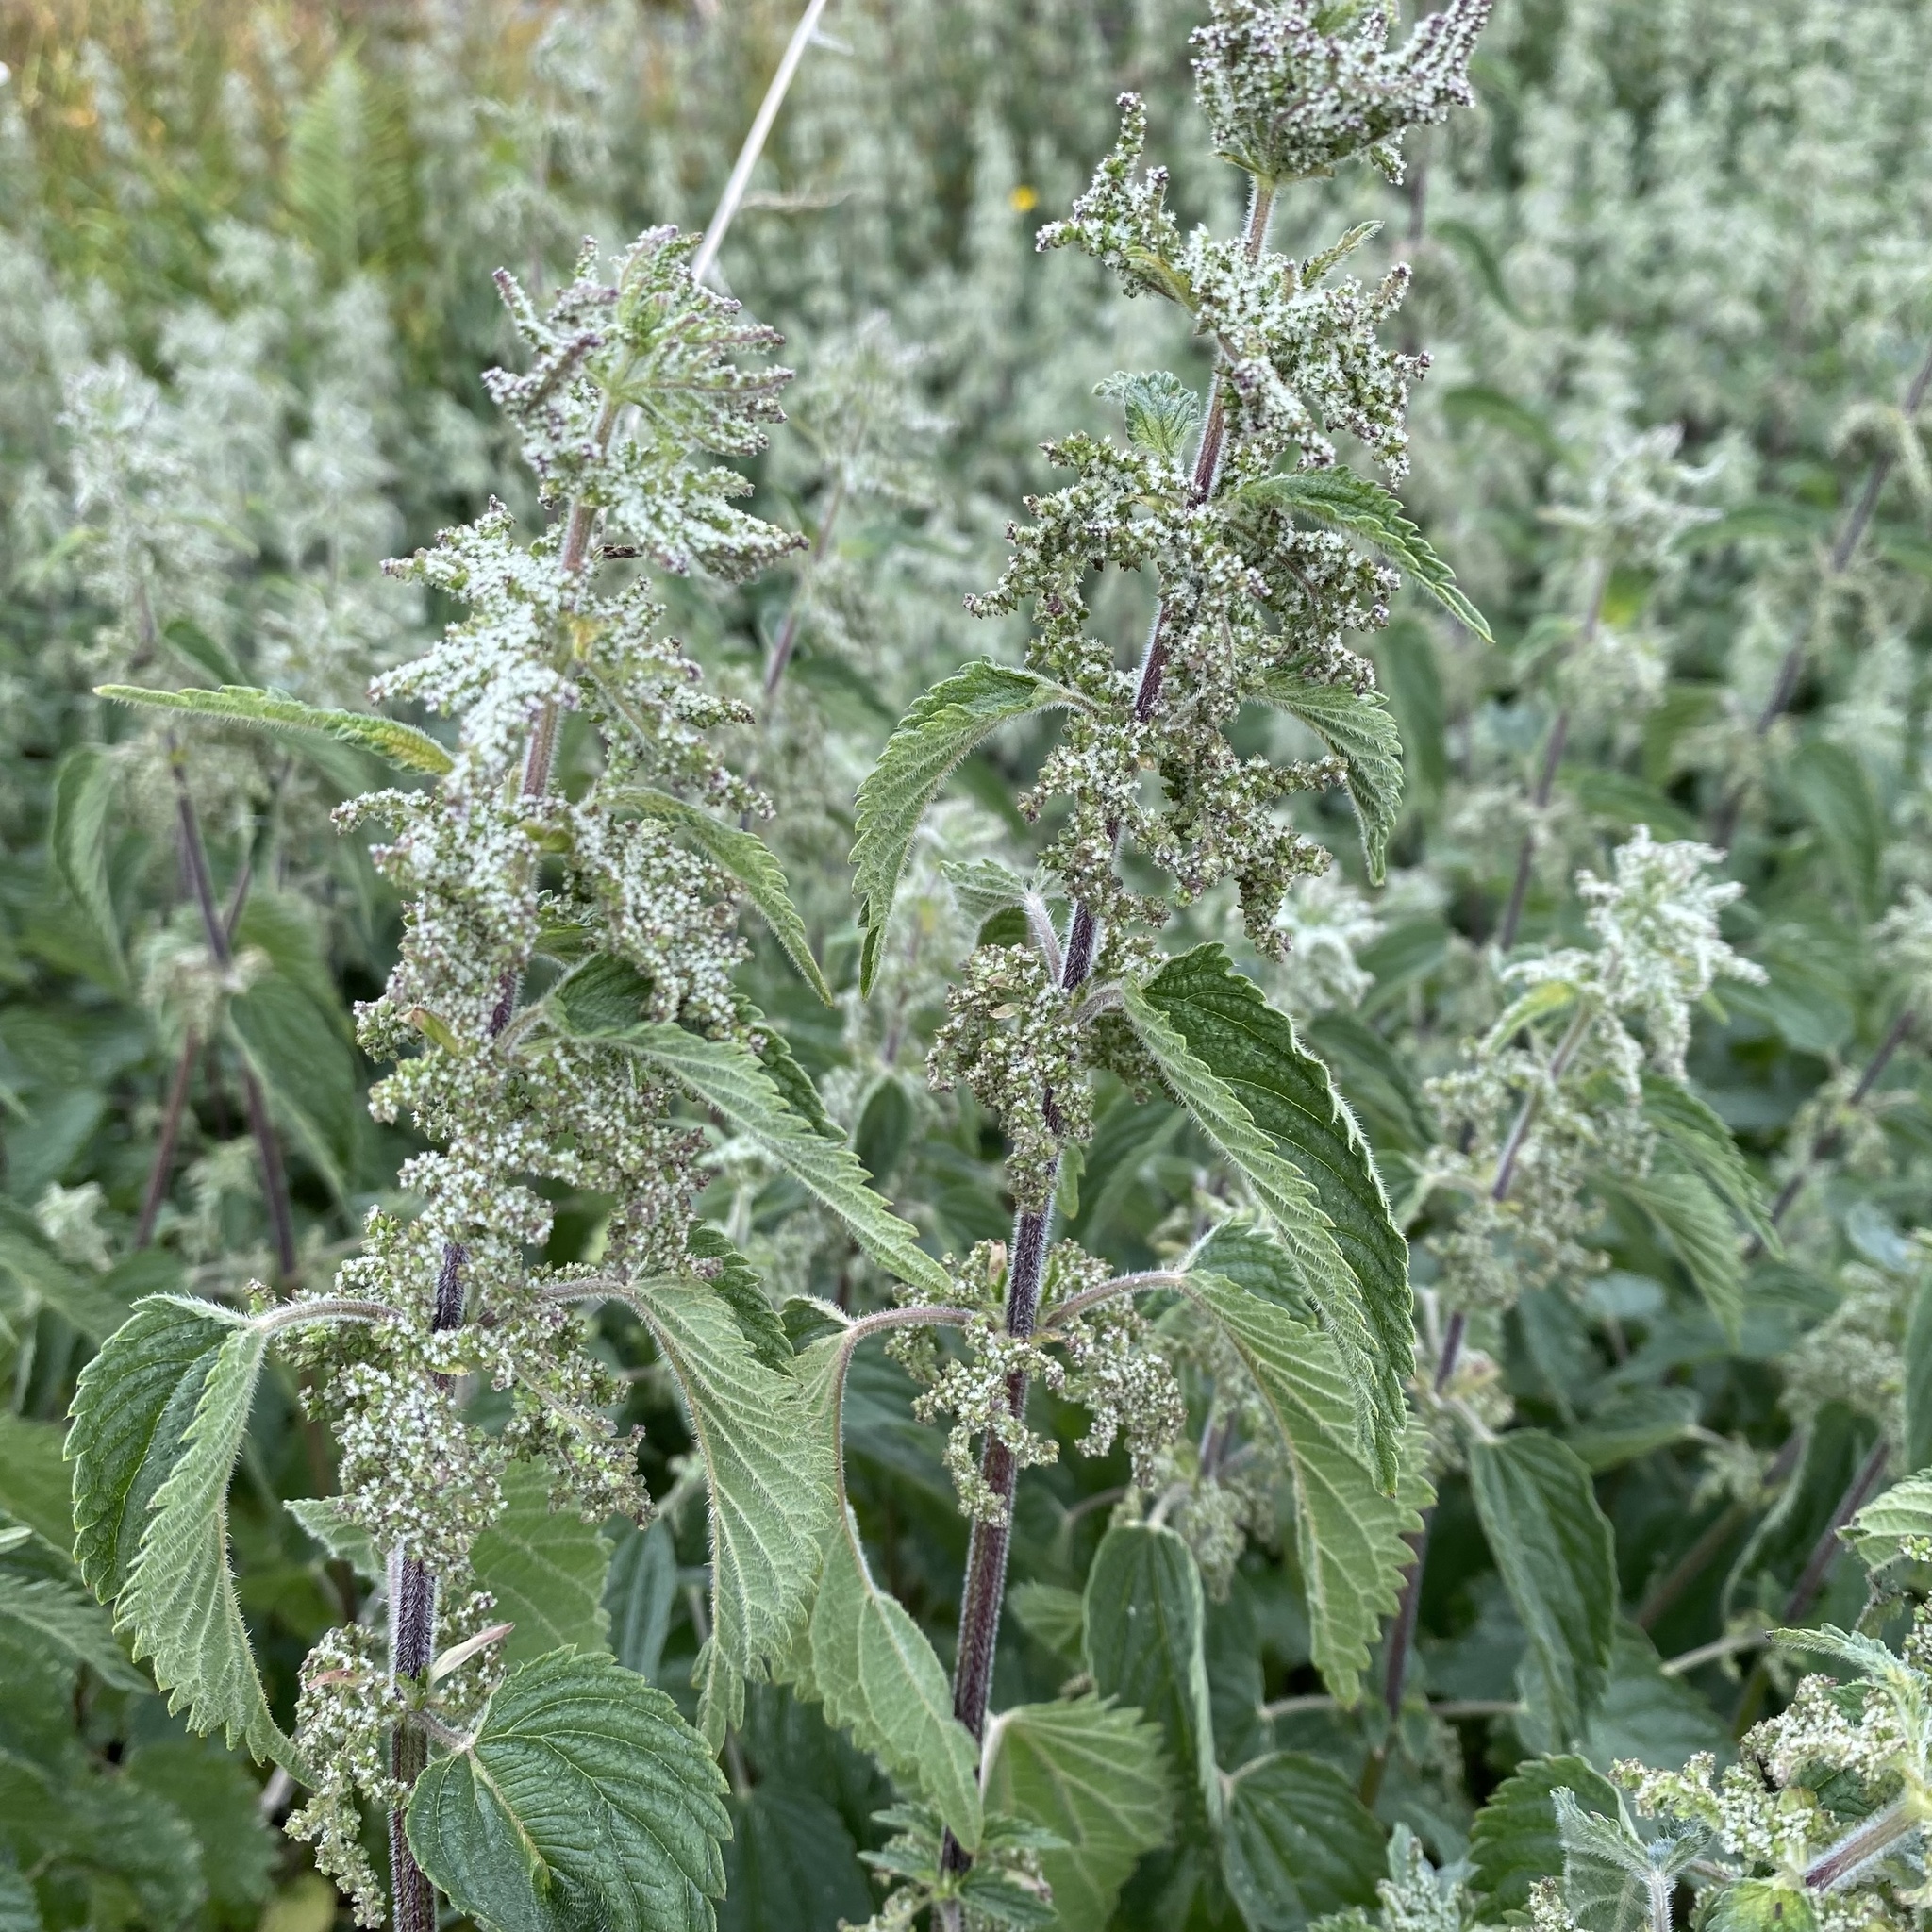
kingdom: Plantae
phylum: Tracheophyta
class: Magnoliopsida
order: Rosales
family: Urticaceae
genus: Urtica
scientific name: Urtica dioica
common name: Common nettle
